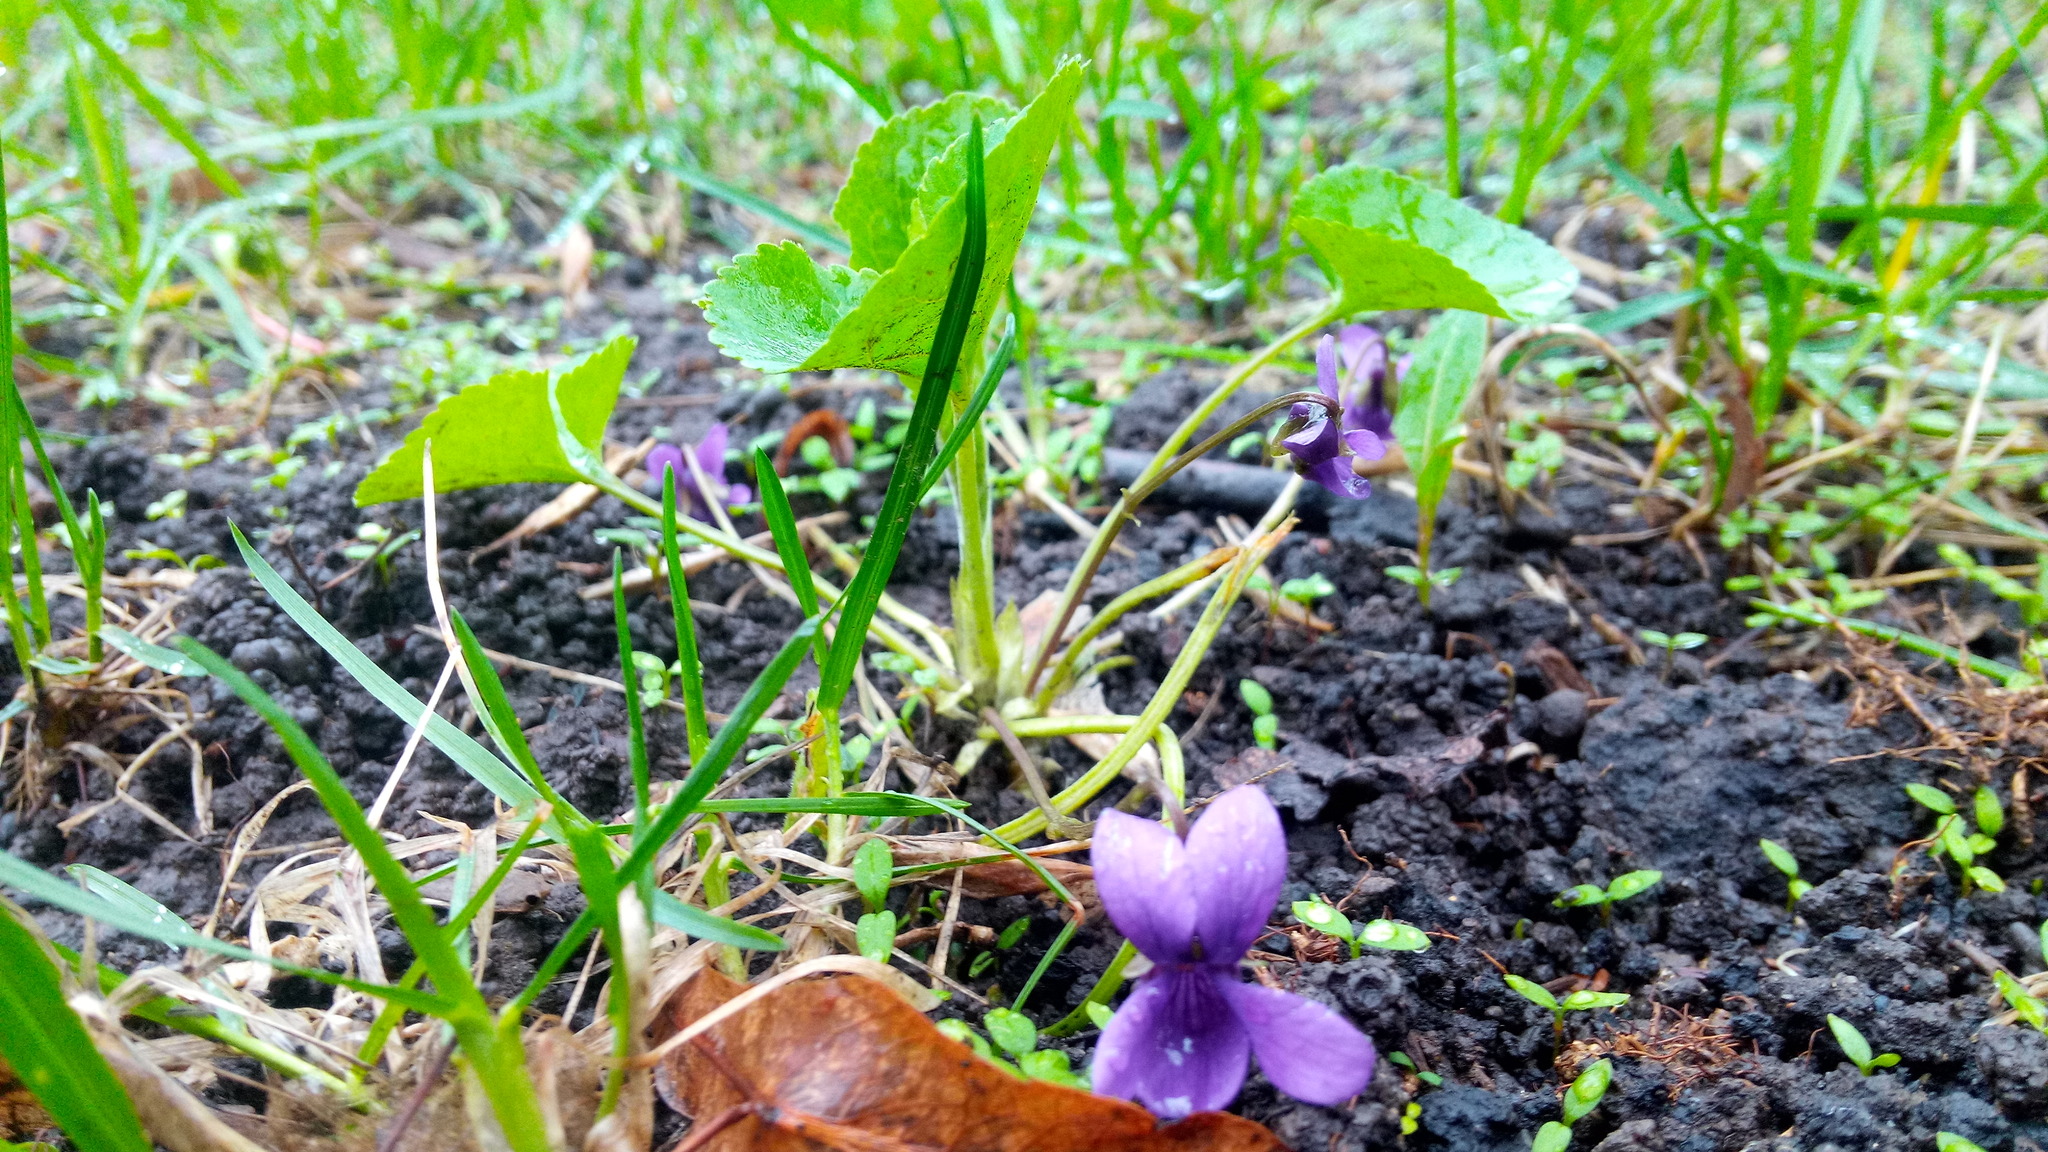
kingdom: Plantae
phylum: Tracheophyta
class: Magnoliopsida
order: Malpighiales
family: Violaceae
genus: Viola
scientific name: Viola odorata
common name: Sweet violet
